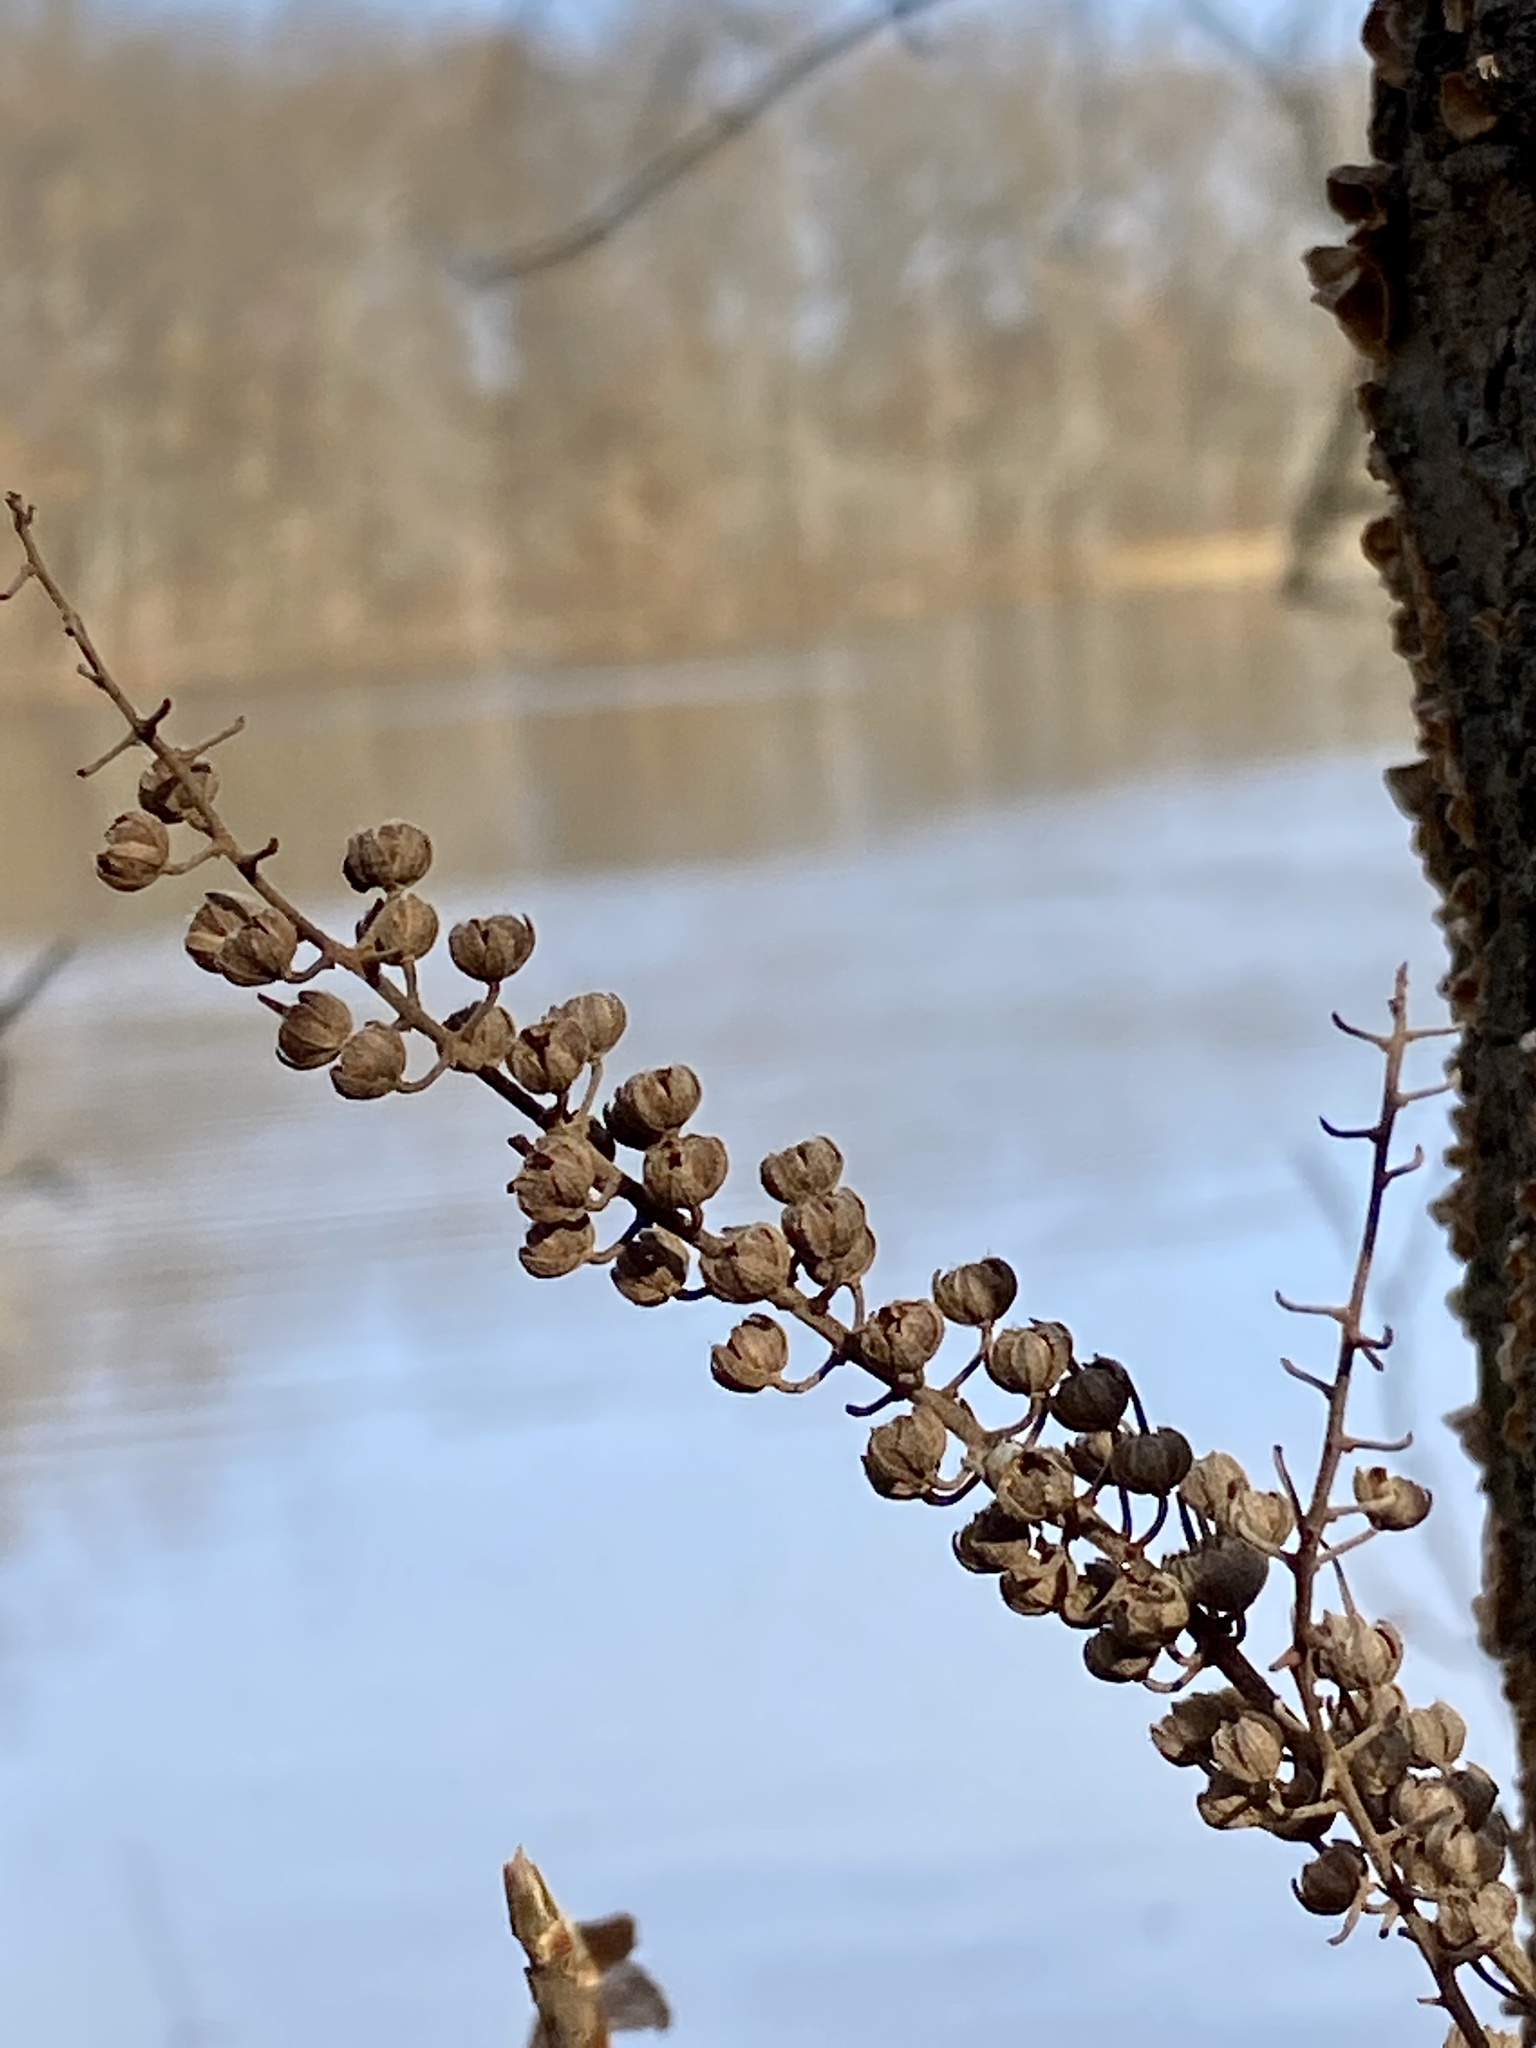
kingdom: Plantae
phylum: Tracheophyta
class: Magnoliopsida
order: Ericales
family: Clethraceae
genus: Clethra
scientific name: Clethra alnifolia
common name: Sweet pepperbush
